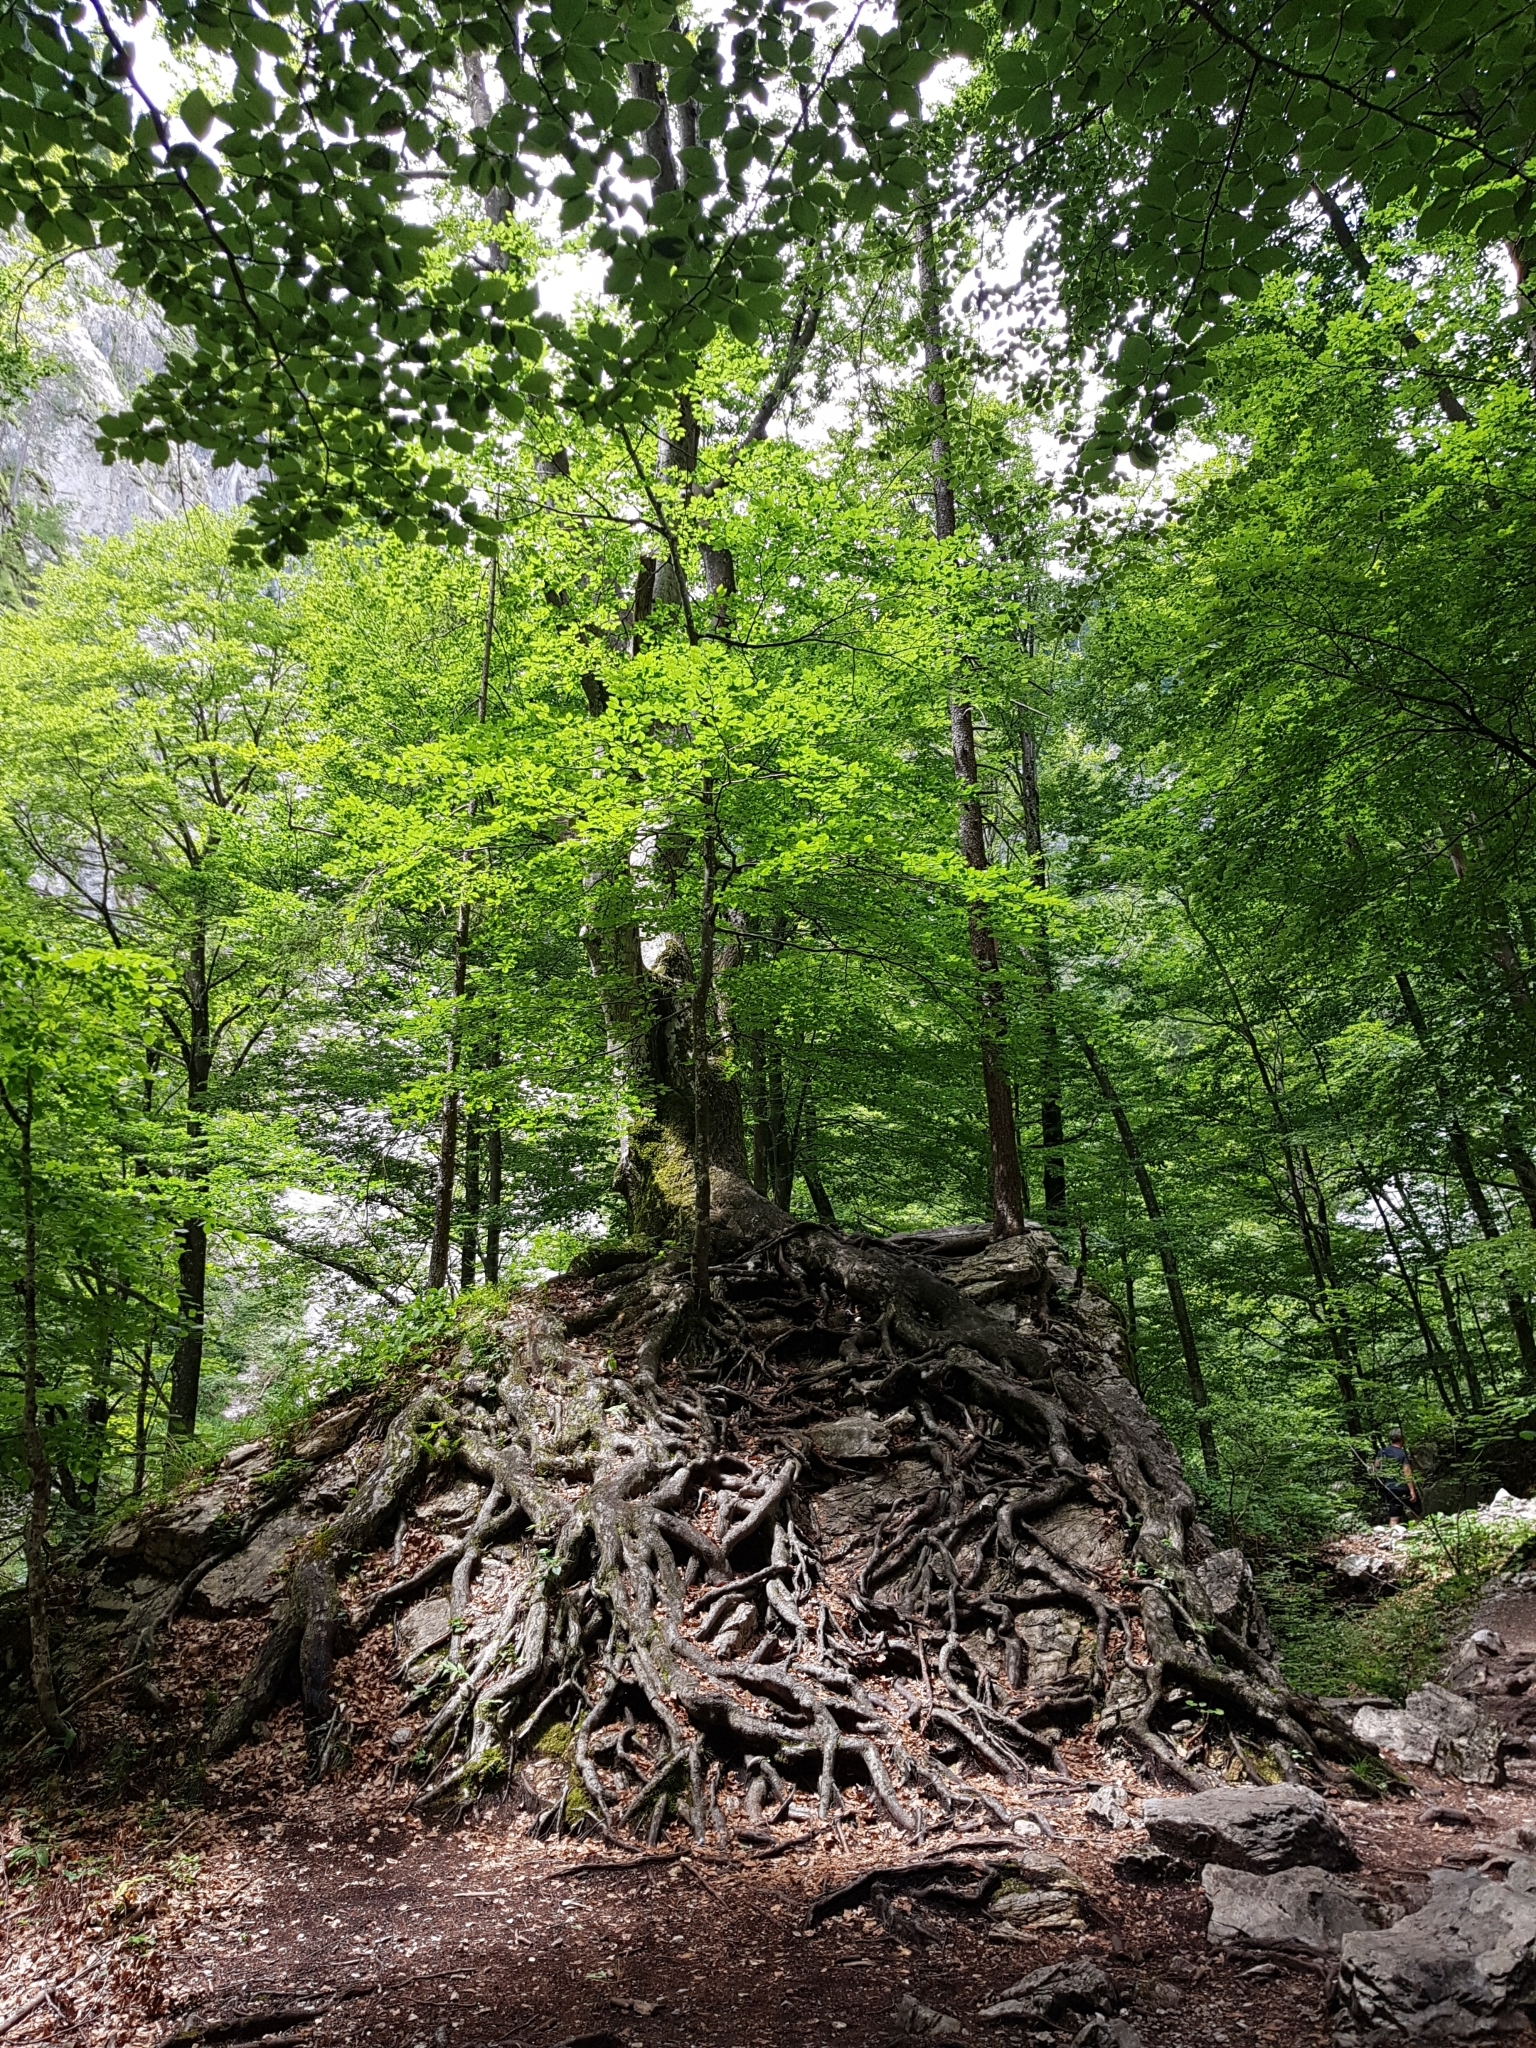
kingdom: Plantae
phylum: Tracheophyta
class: Magnoliopsida
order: Fagales
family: Fagaceae
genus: Fagus
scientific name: Fagus sylvatica
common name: Beech
